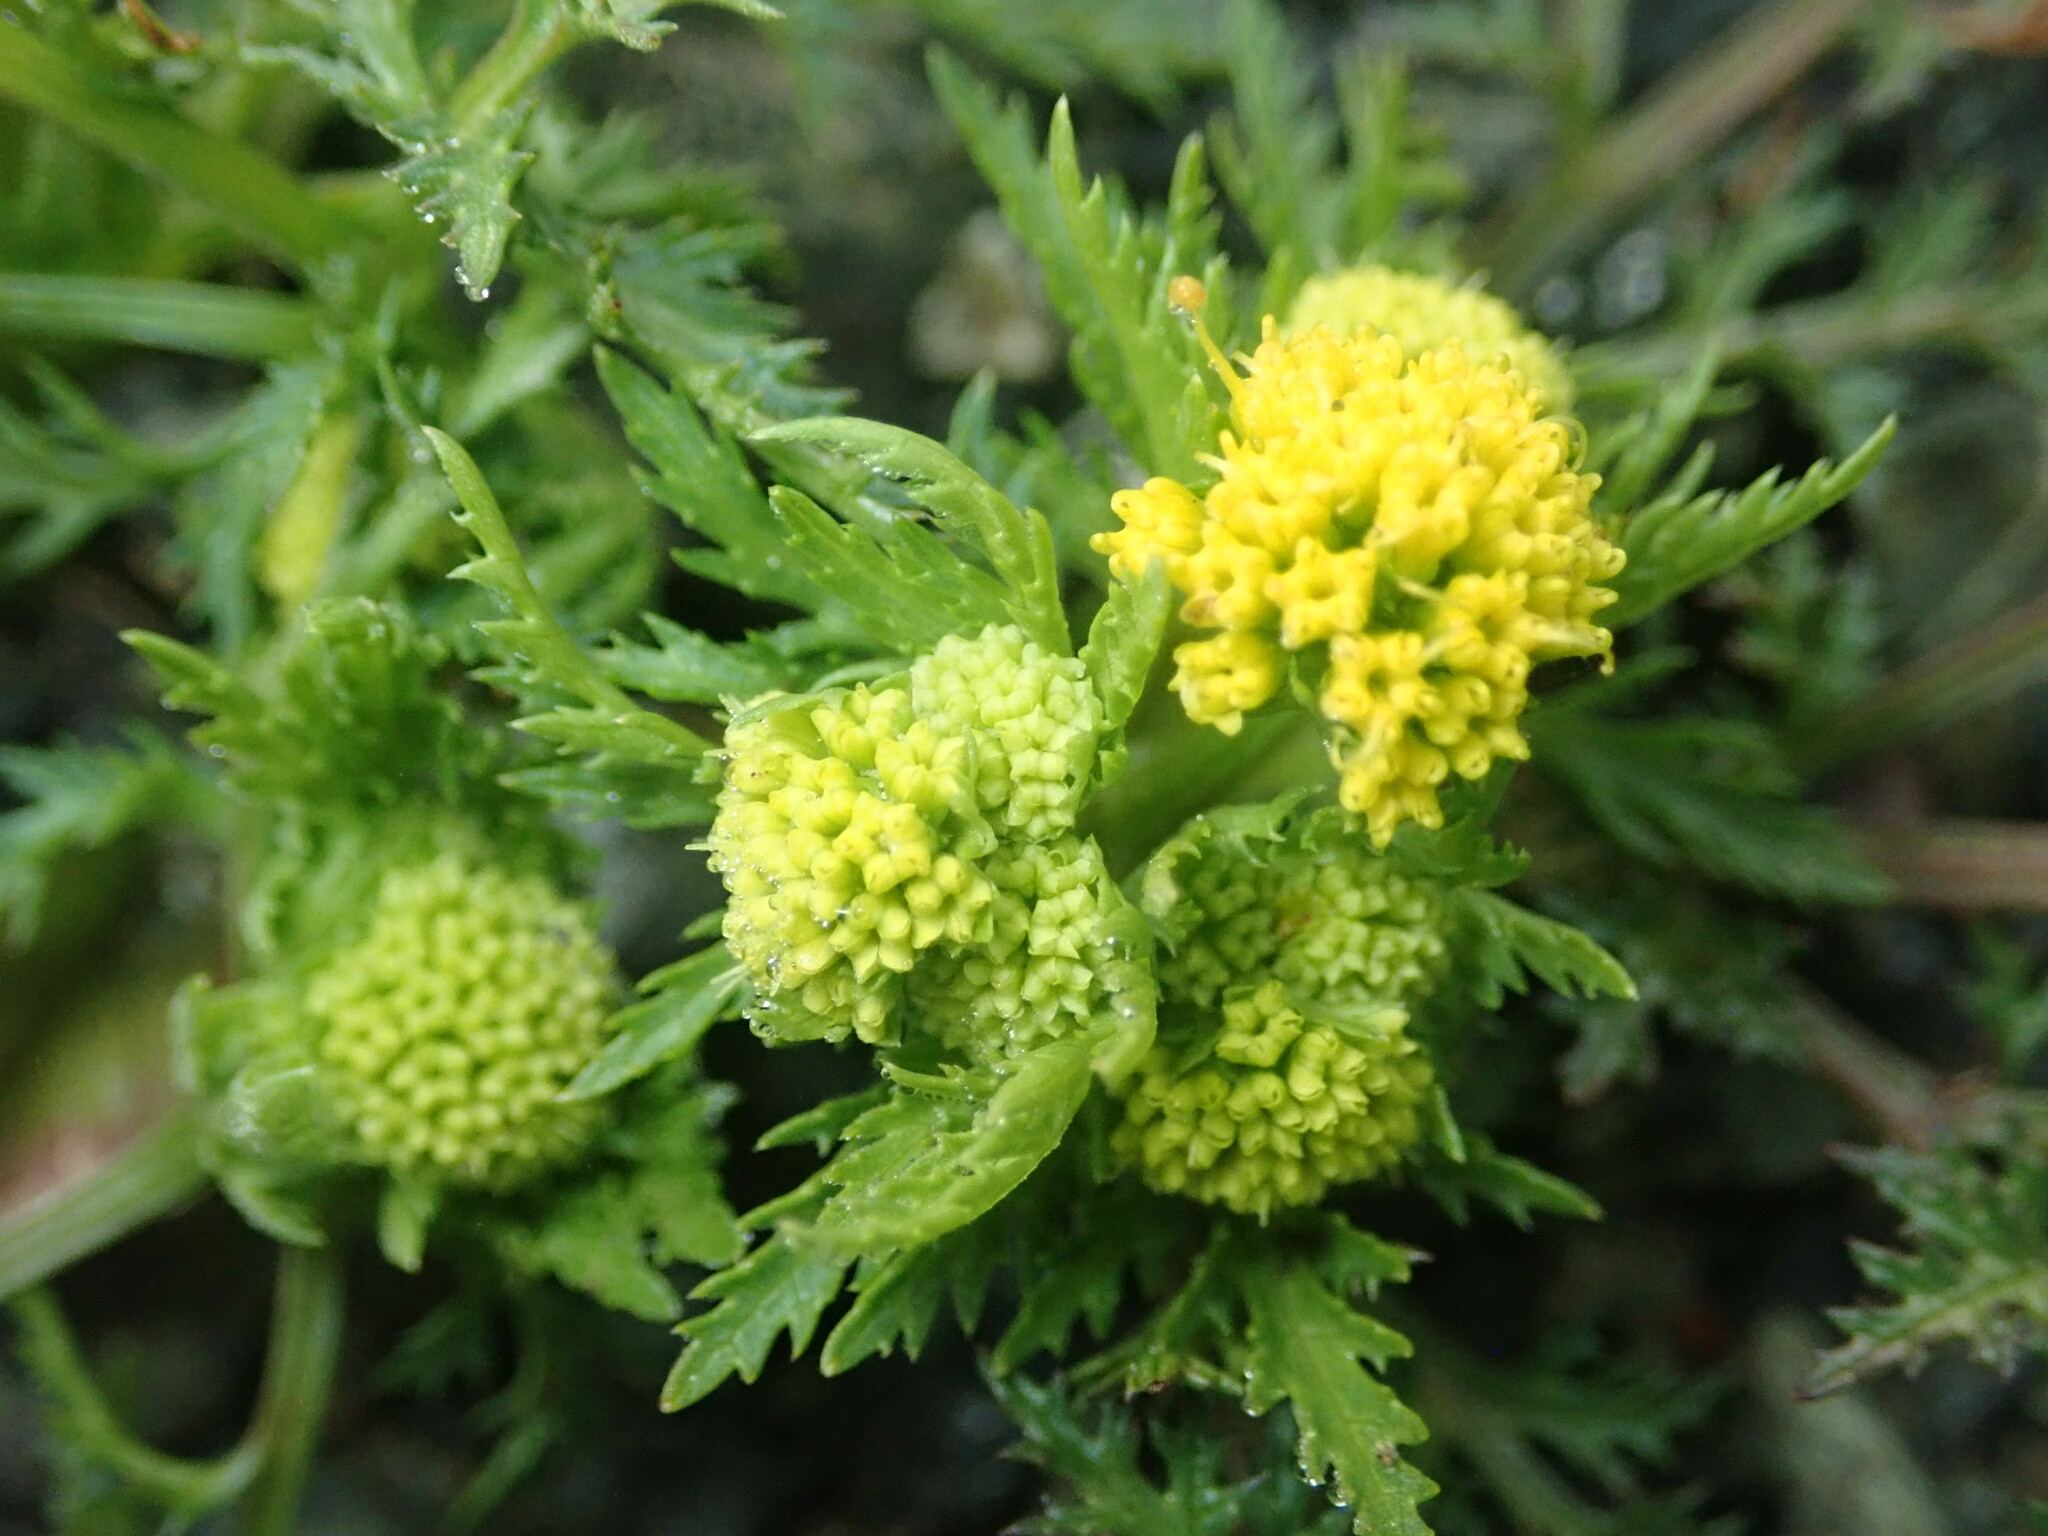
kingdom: Plantae
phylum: Tracheophyta
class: Magnoliopsida
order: Apiales
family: Apiaceae
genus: Sanicula
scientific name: Sanicula tuberosa
